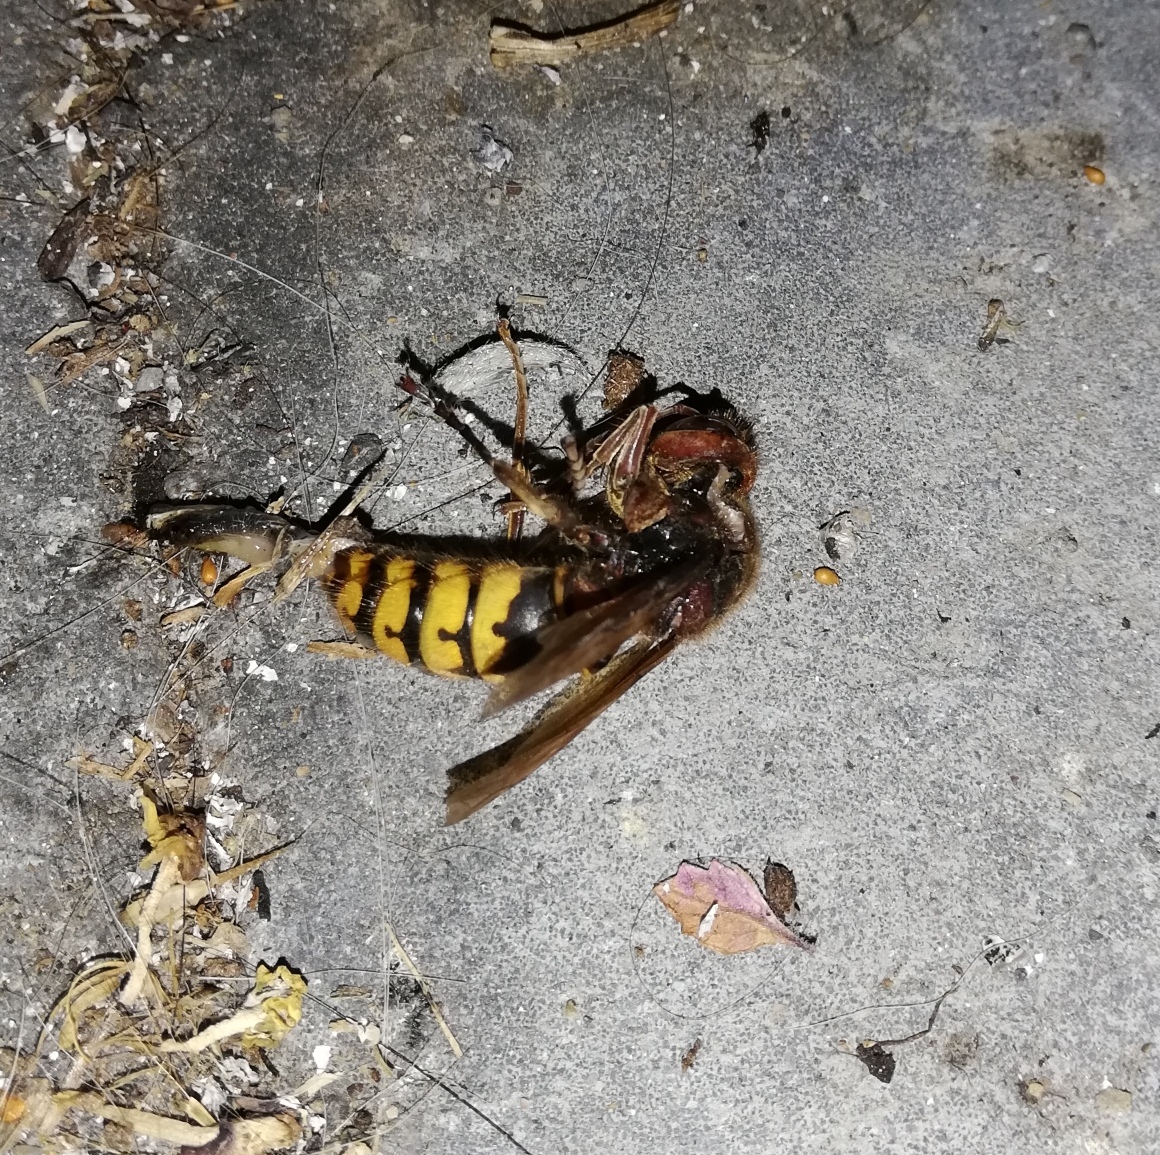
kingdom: Animalia
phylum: Arthropoda
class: Insecta
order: Hymenoptera
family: Vespidae
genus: Vespa
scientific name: Vespa crabro
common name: Hornet
